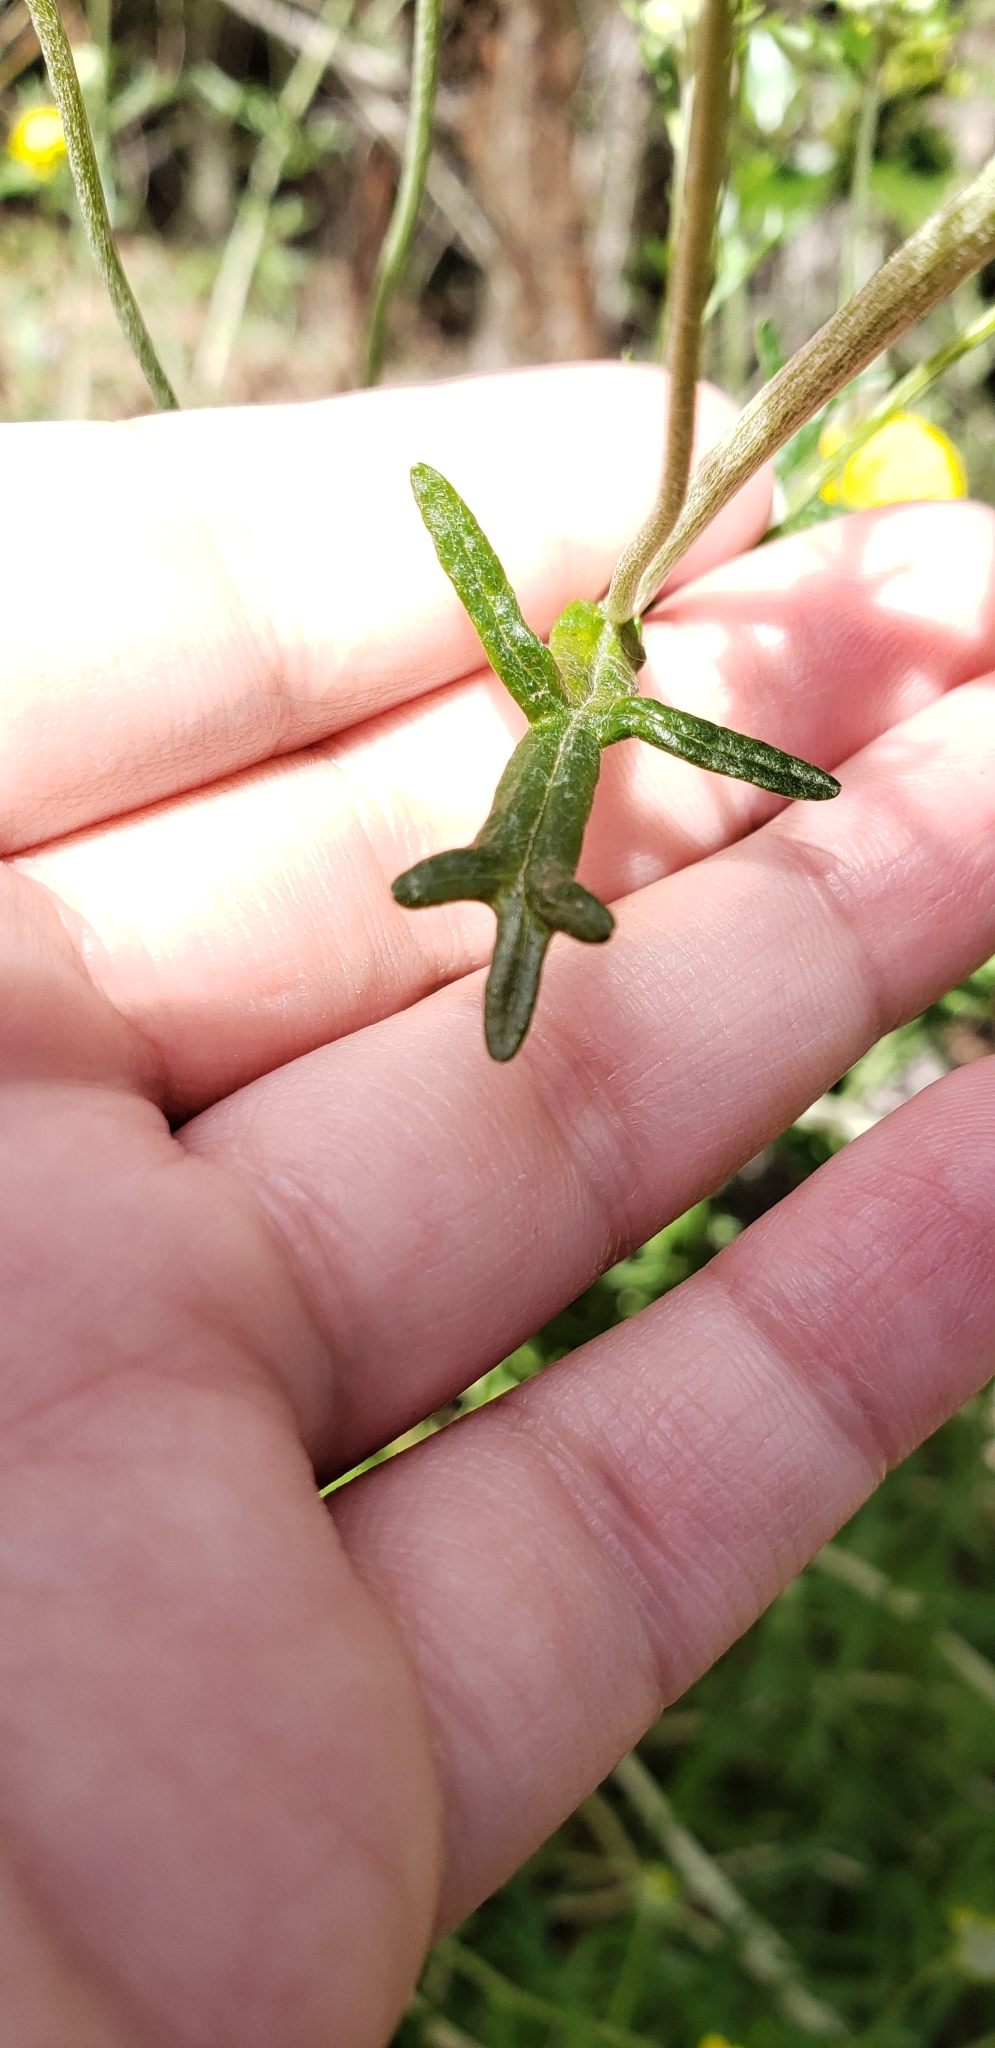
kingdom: Plantae
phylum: Tracheophyta
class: Magnoliopsida
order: Asterales
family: Asteraceae
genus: Eriophyllum
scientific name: Eriophyllum confertiflorum
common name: Golden-yarrow
